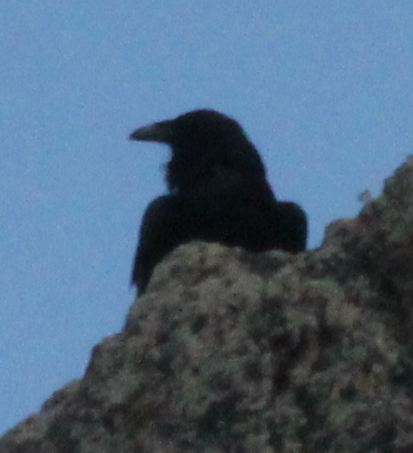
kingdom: Animalia
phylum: Chordata
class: Aves
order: Passeriformes
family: Corvidae
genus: Corvus
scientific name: Corvus corax
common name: Common raven
